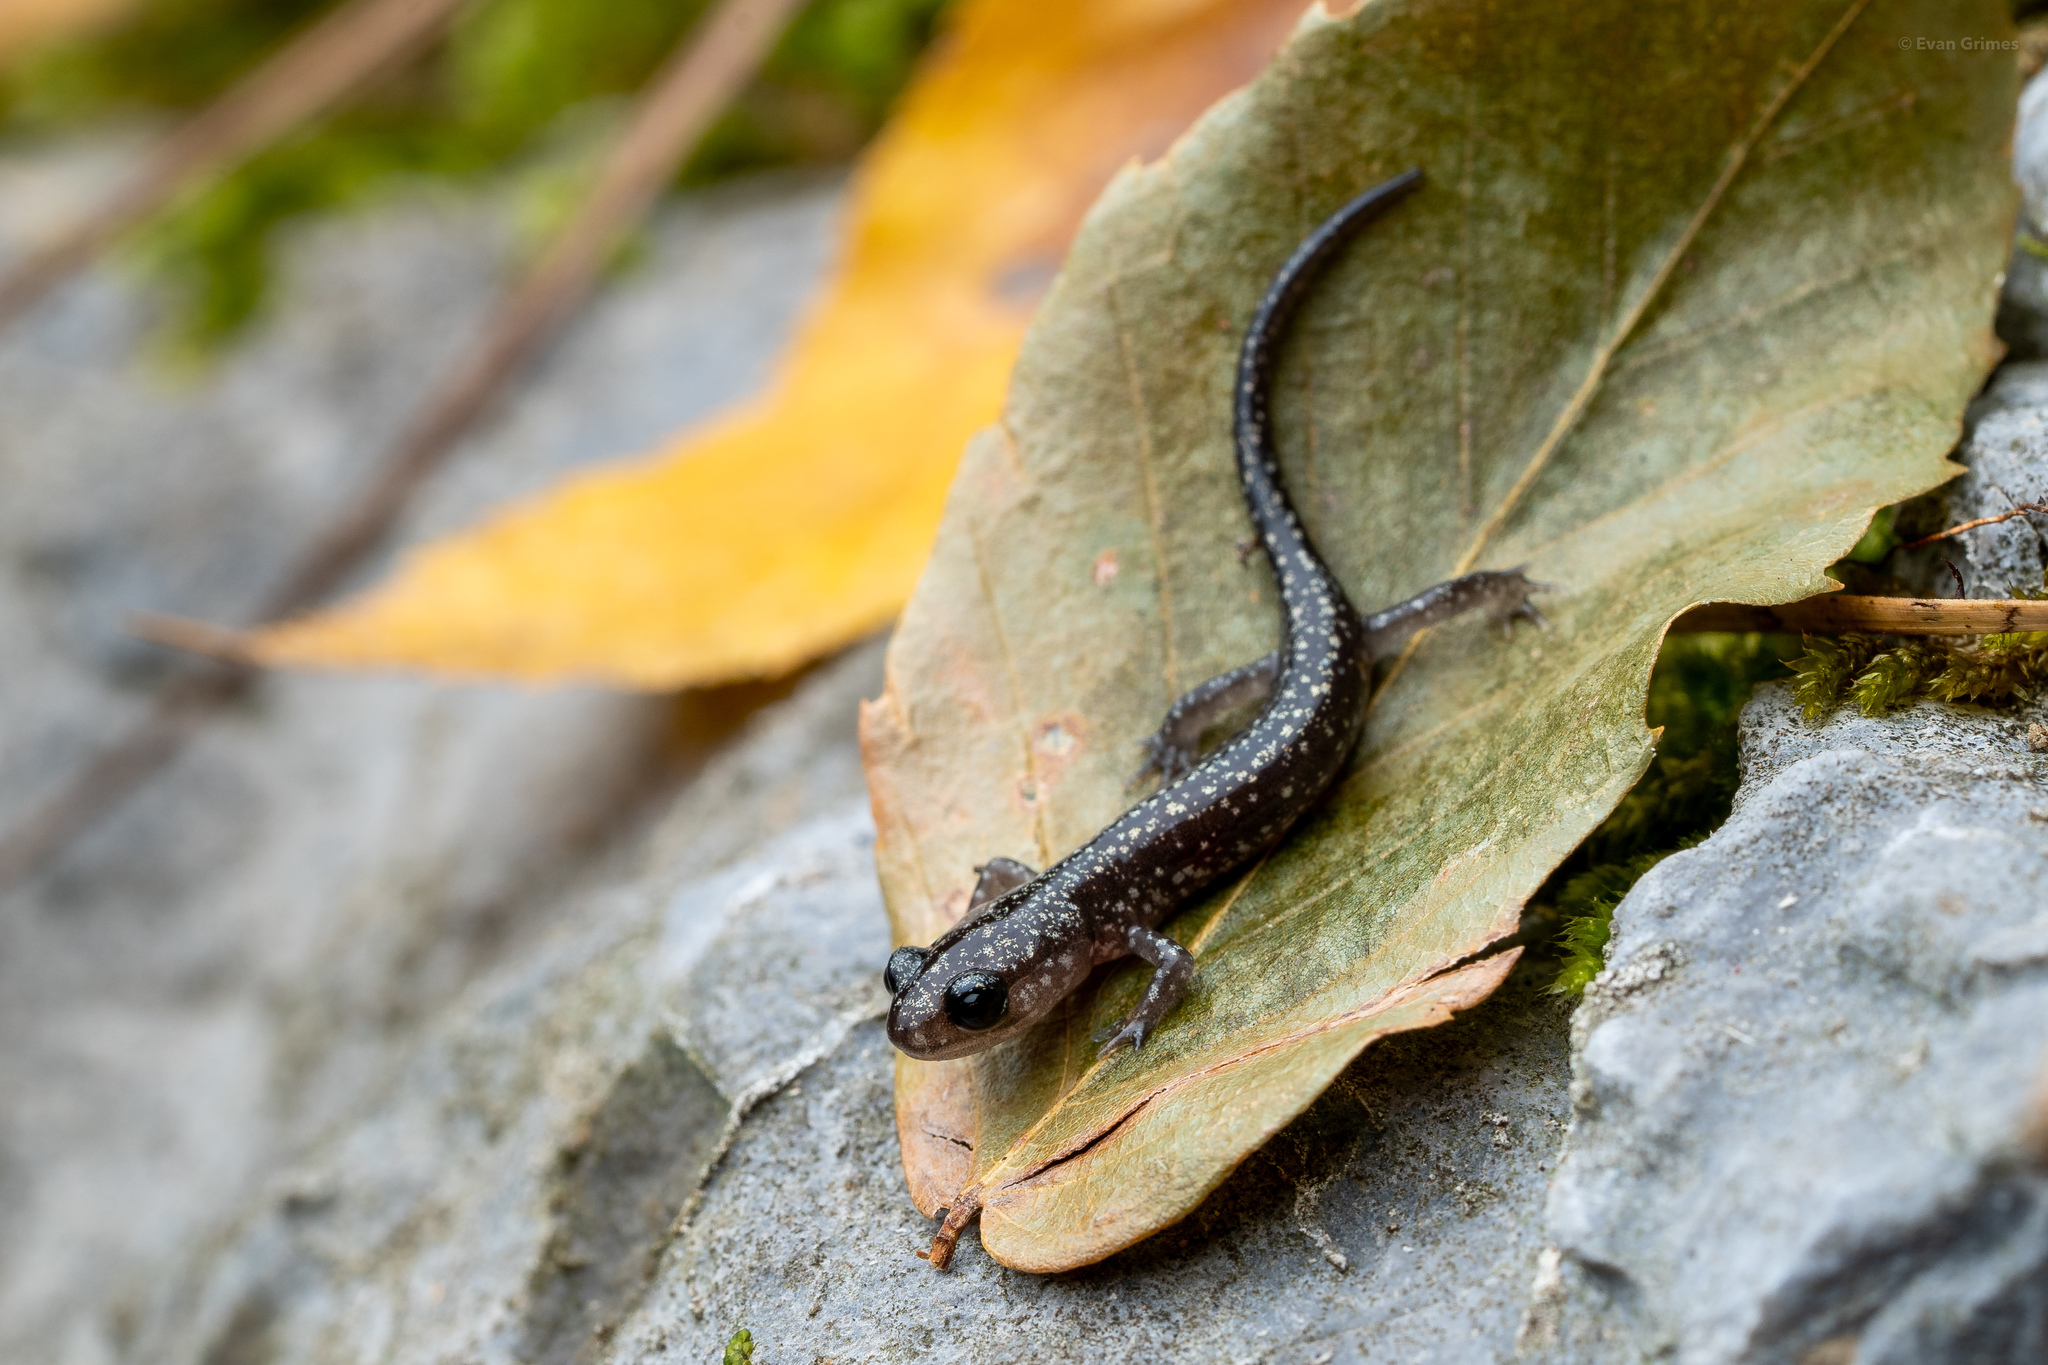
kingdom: Animalia
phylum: Chordata
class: Amphibia
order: Caudata
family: Plethodontidae
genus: Plethodon
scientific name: Plethodon mississippi
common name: Mississippi slimy salamander
